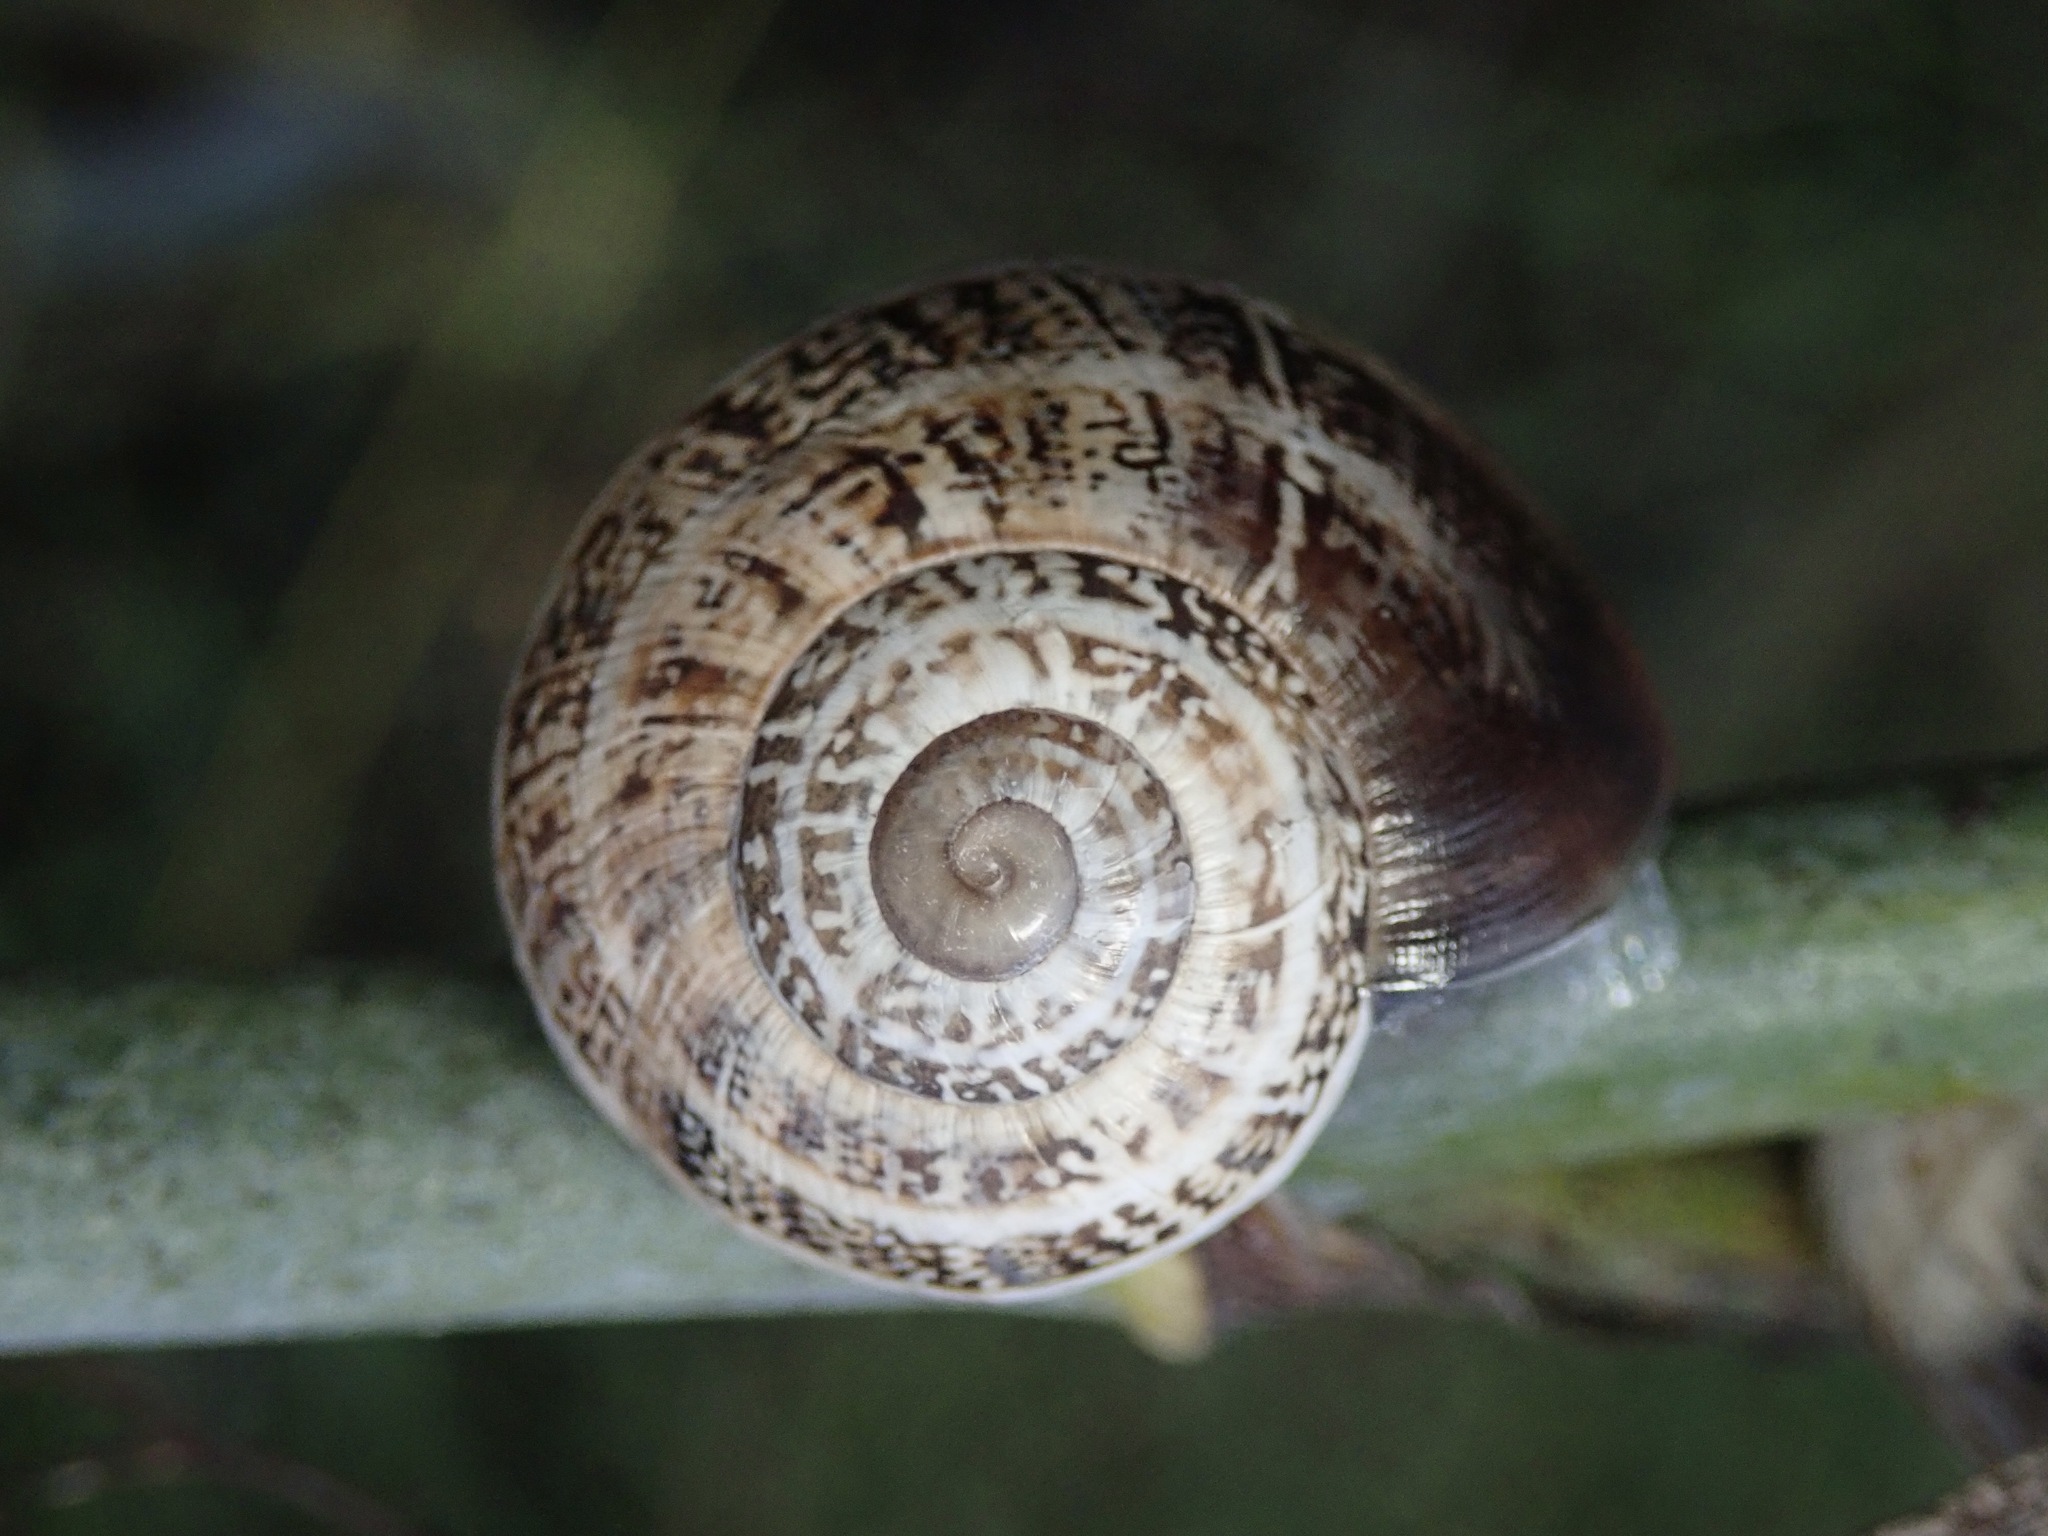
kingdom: Animalia
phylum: Mollusca
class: Gastropoda
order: Stylommatophora
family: Helicidae
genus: Otala
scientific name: Otala lactea
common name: Milk snail
